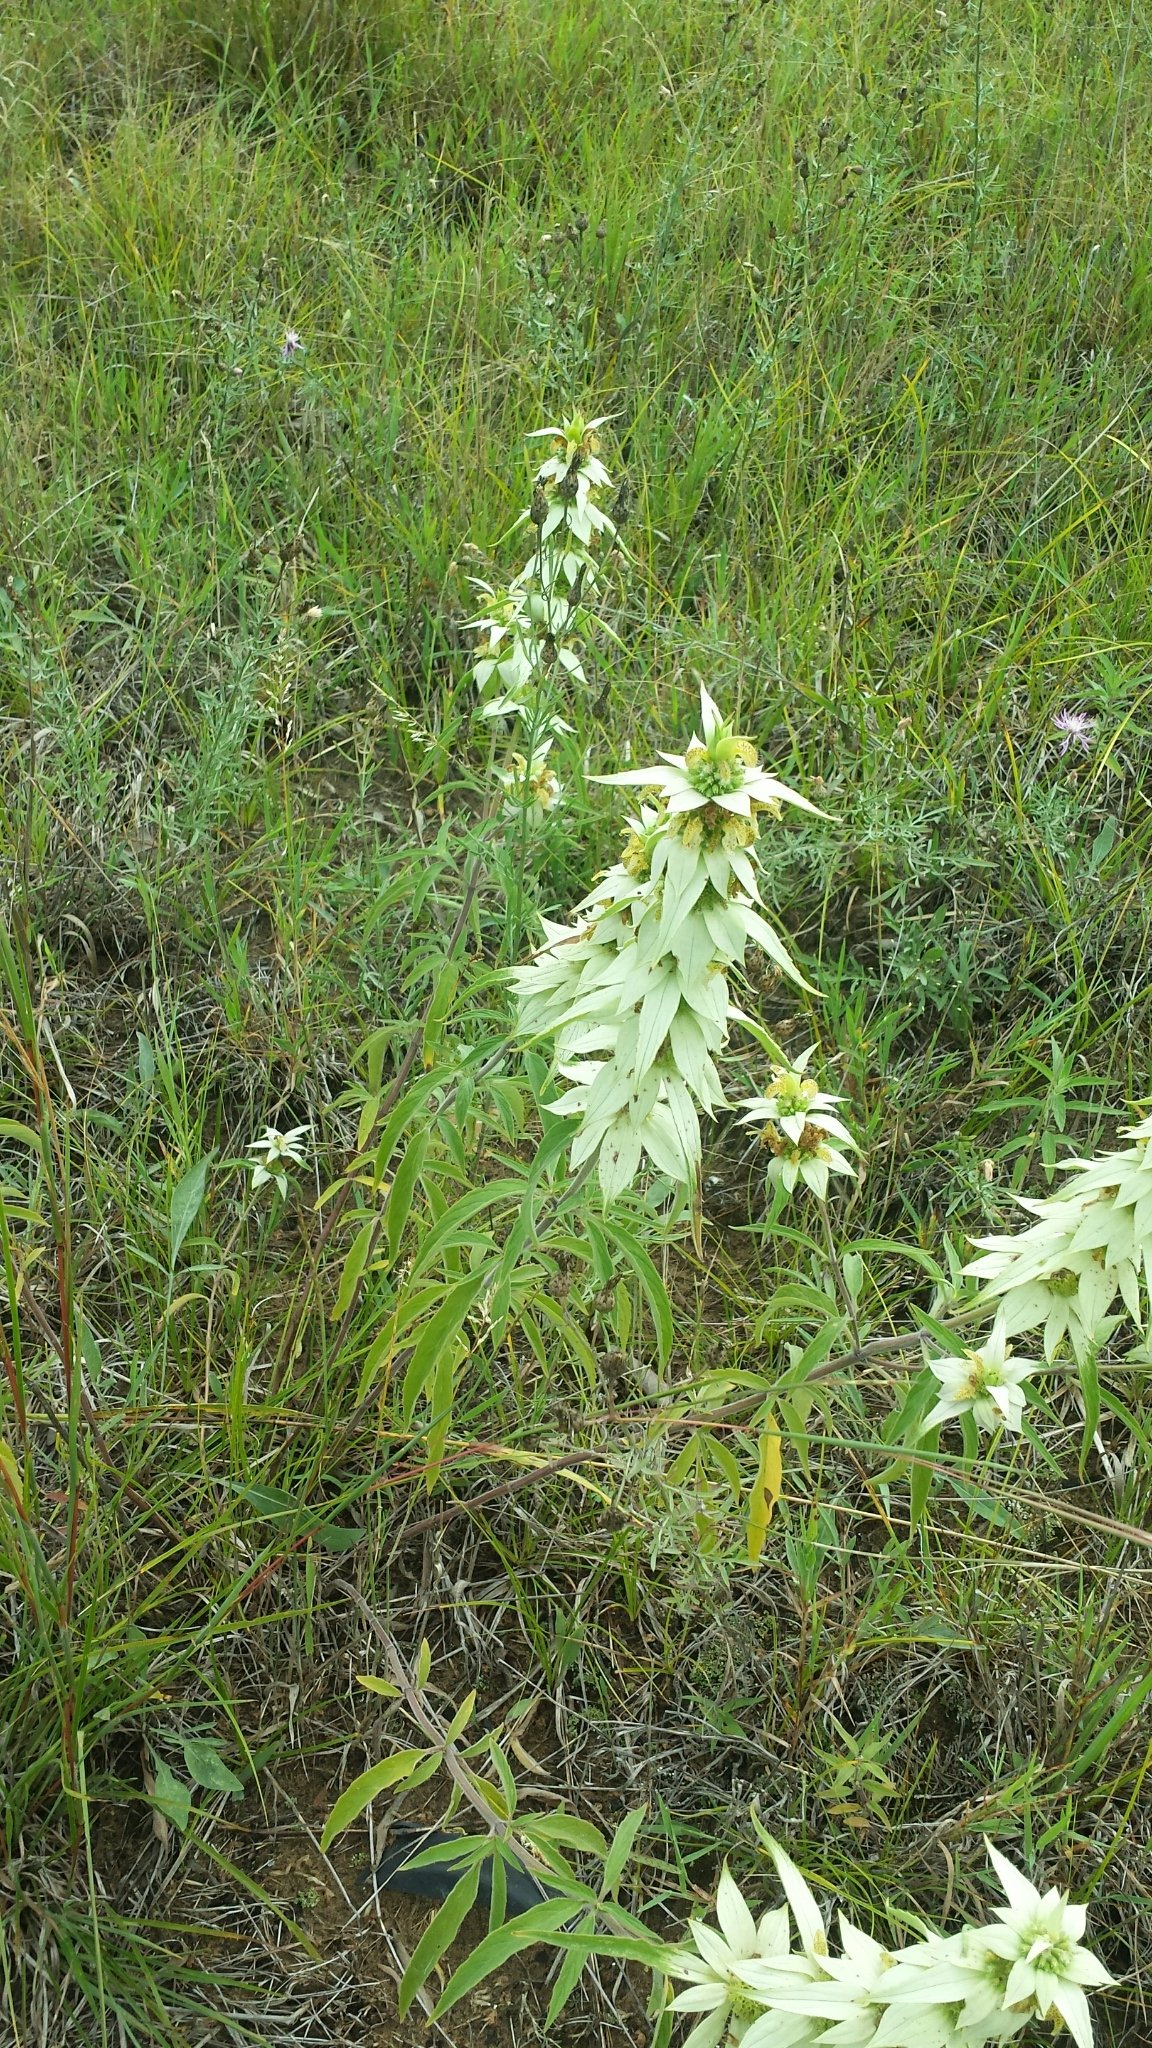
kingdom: Plantae
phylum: Tracheophyta
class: Magnoliopsida
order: Lamiales
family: Lamiaceae
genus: Monarda
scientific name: Monarda punctata
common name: Dotted monarda
